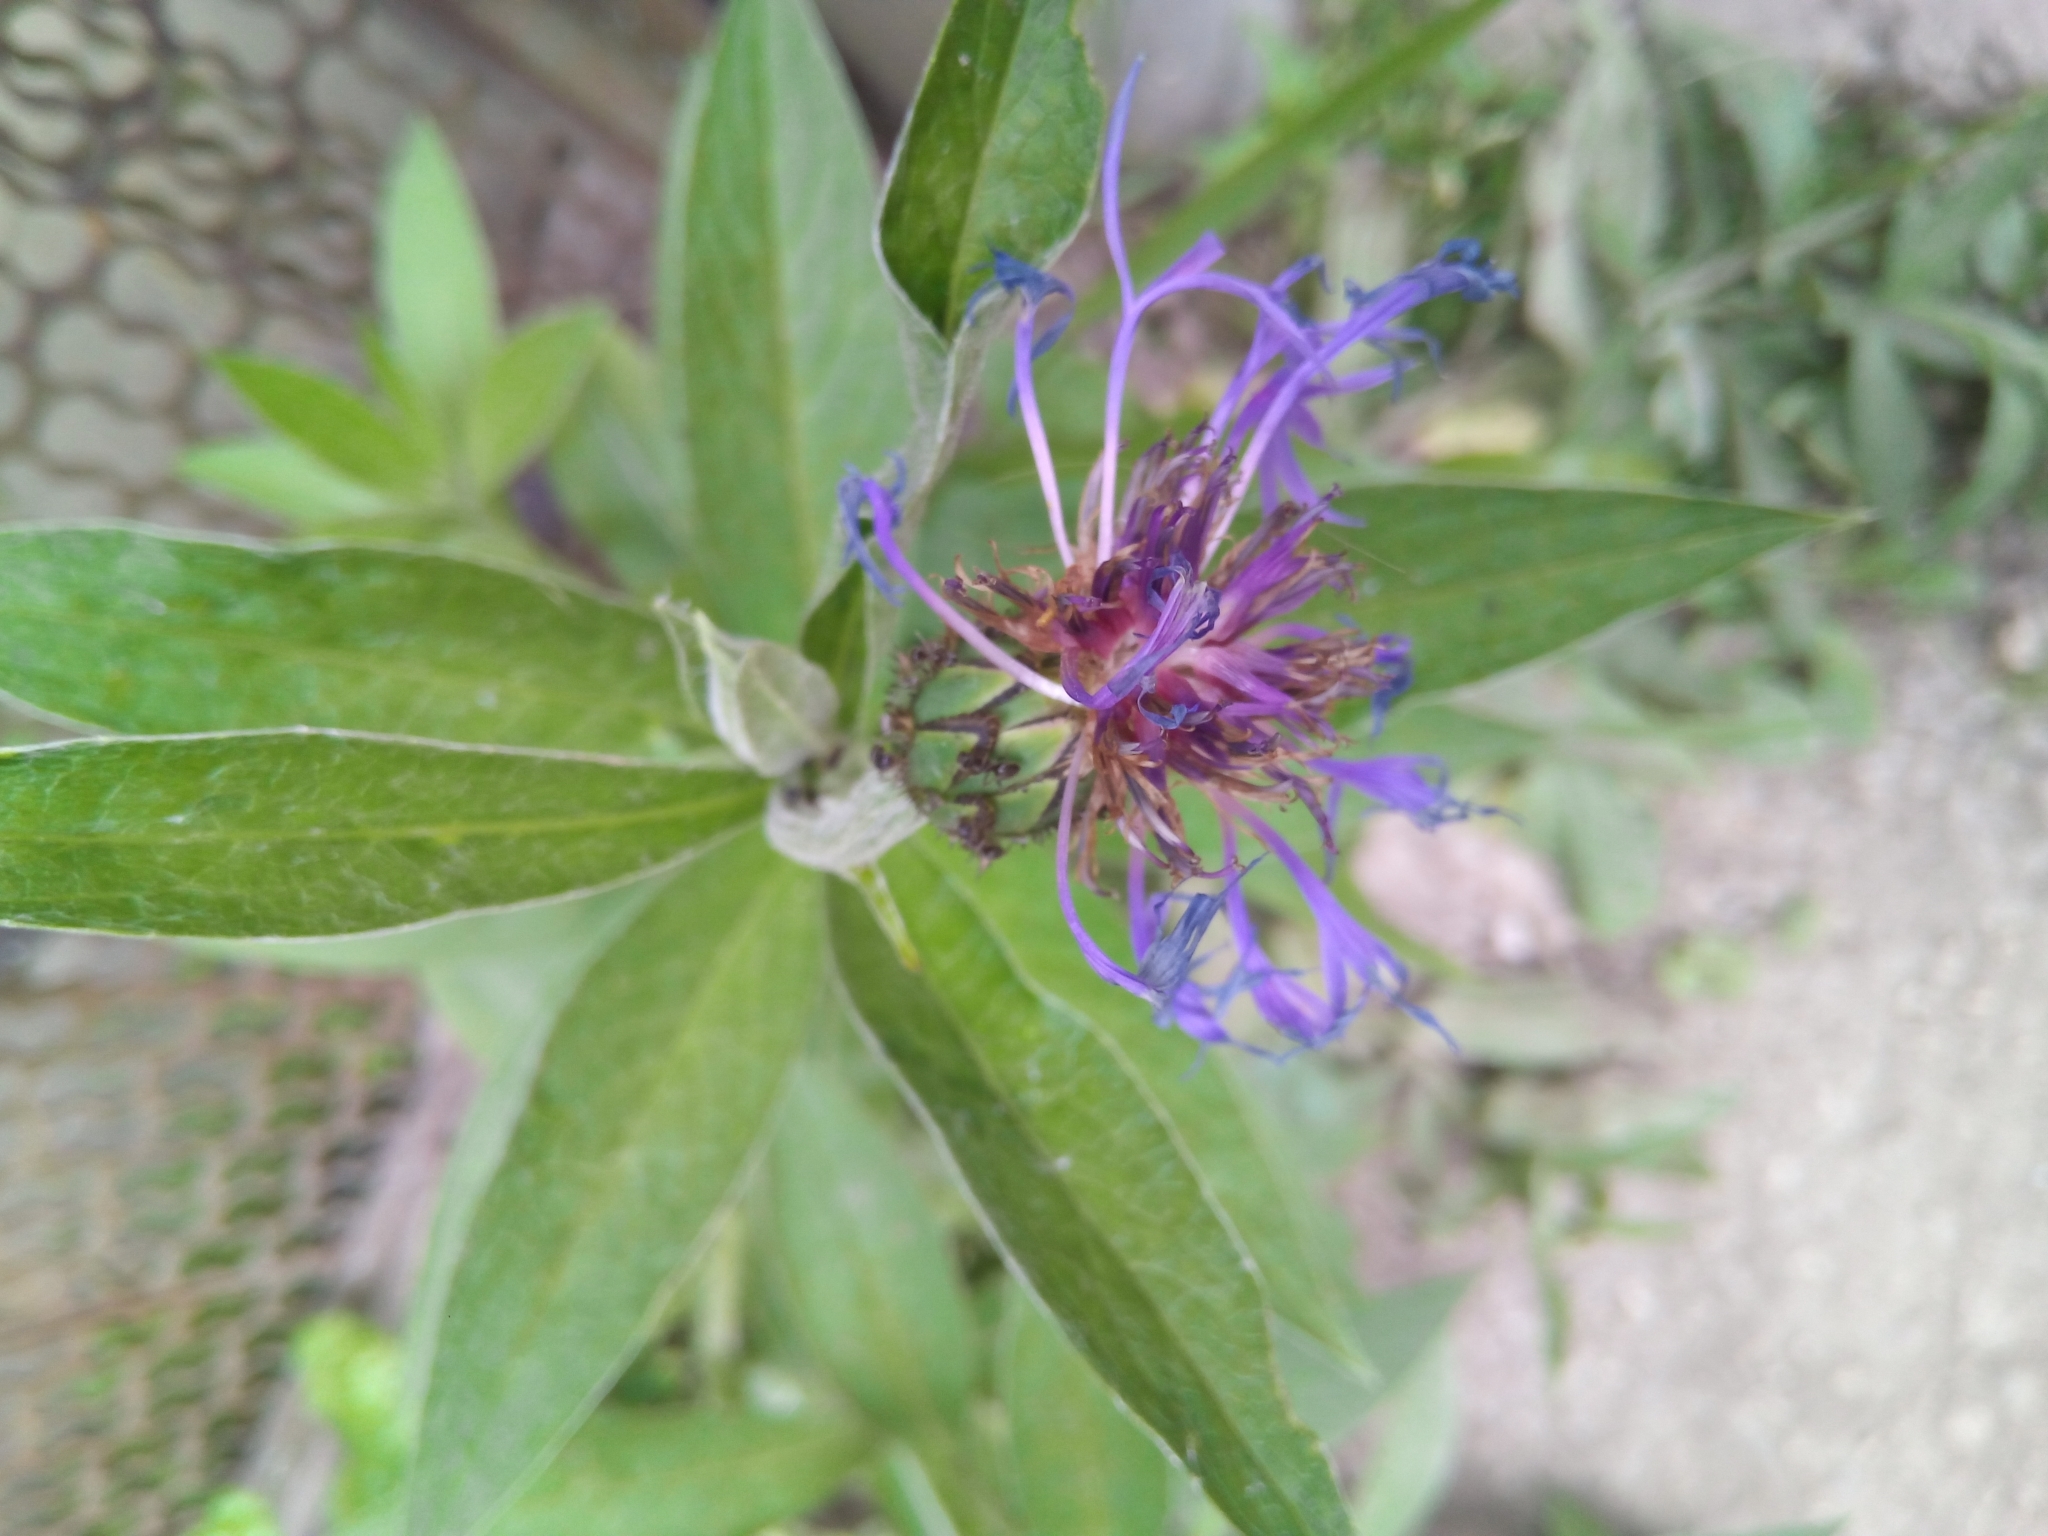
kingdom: Plantae
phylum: Tracheophyta
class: Magnoliopsida
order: Asterales
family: Asteraceae
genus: Centaurea
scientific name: Centaurea montana
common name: Perennial cornflower
